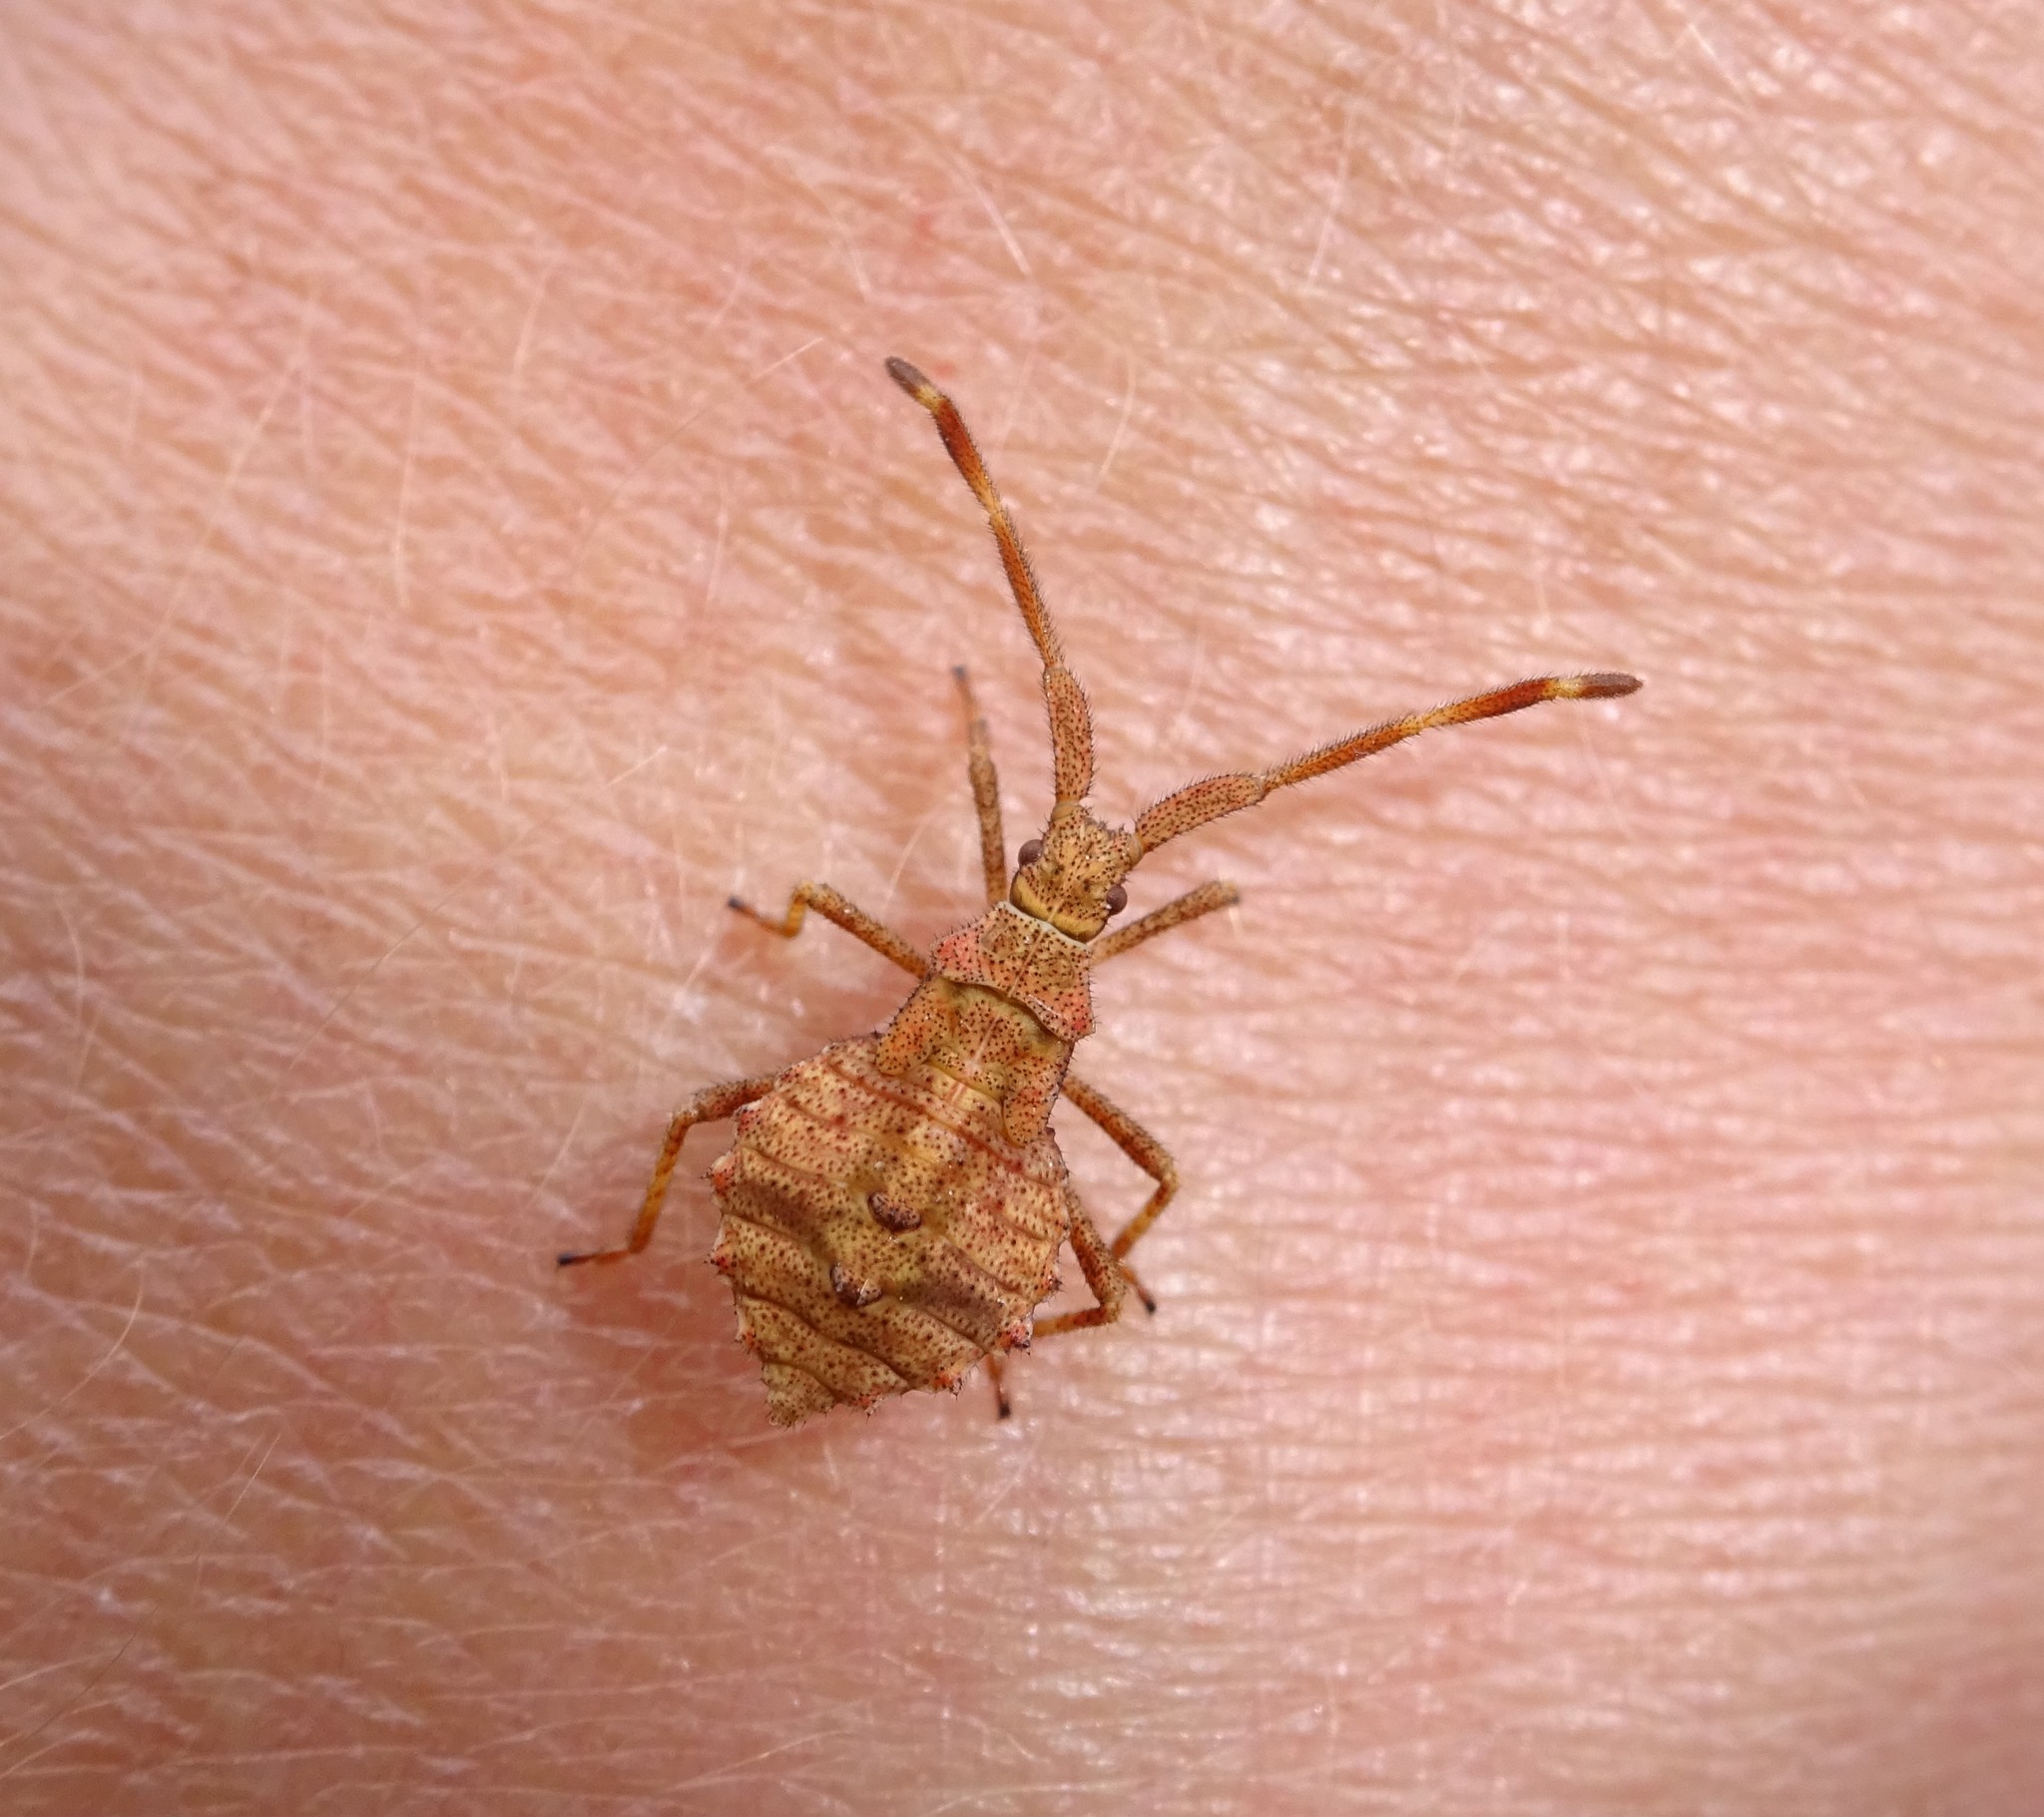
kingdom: Animalia
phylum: Arthropoda
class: Insecta
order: Hemiptera
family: Coreidae
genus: Coreus
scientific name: Coreus marginatus
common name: Dock bug
